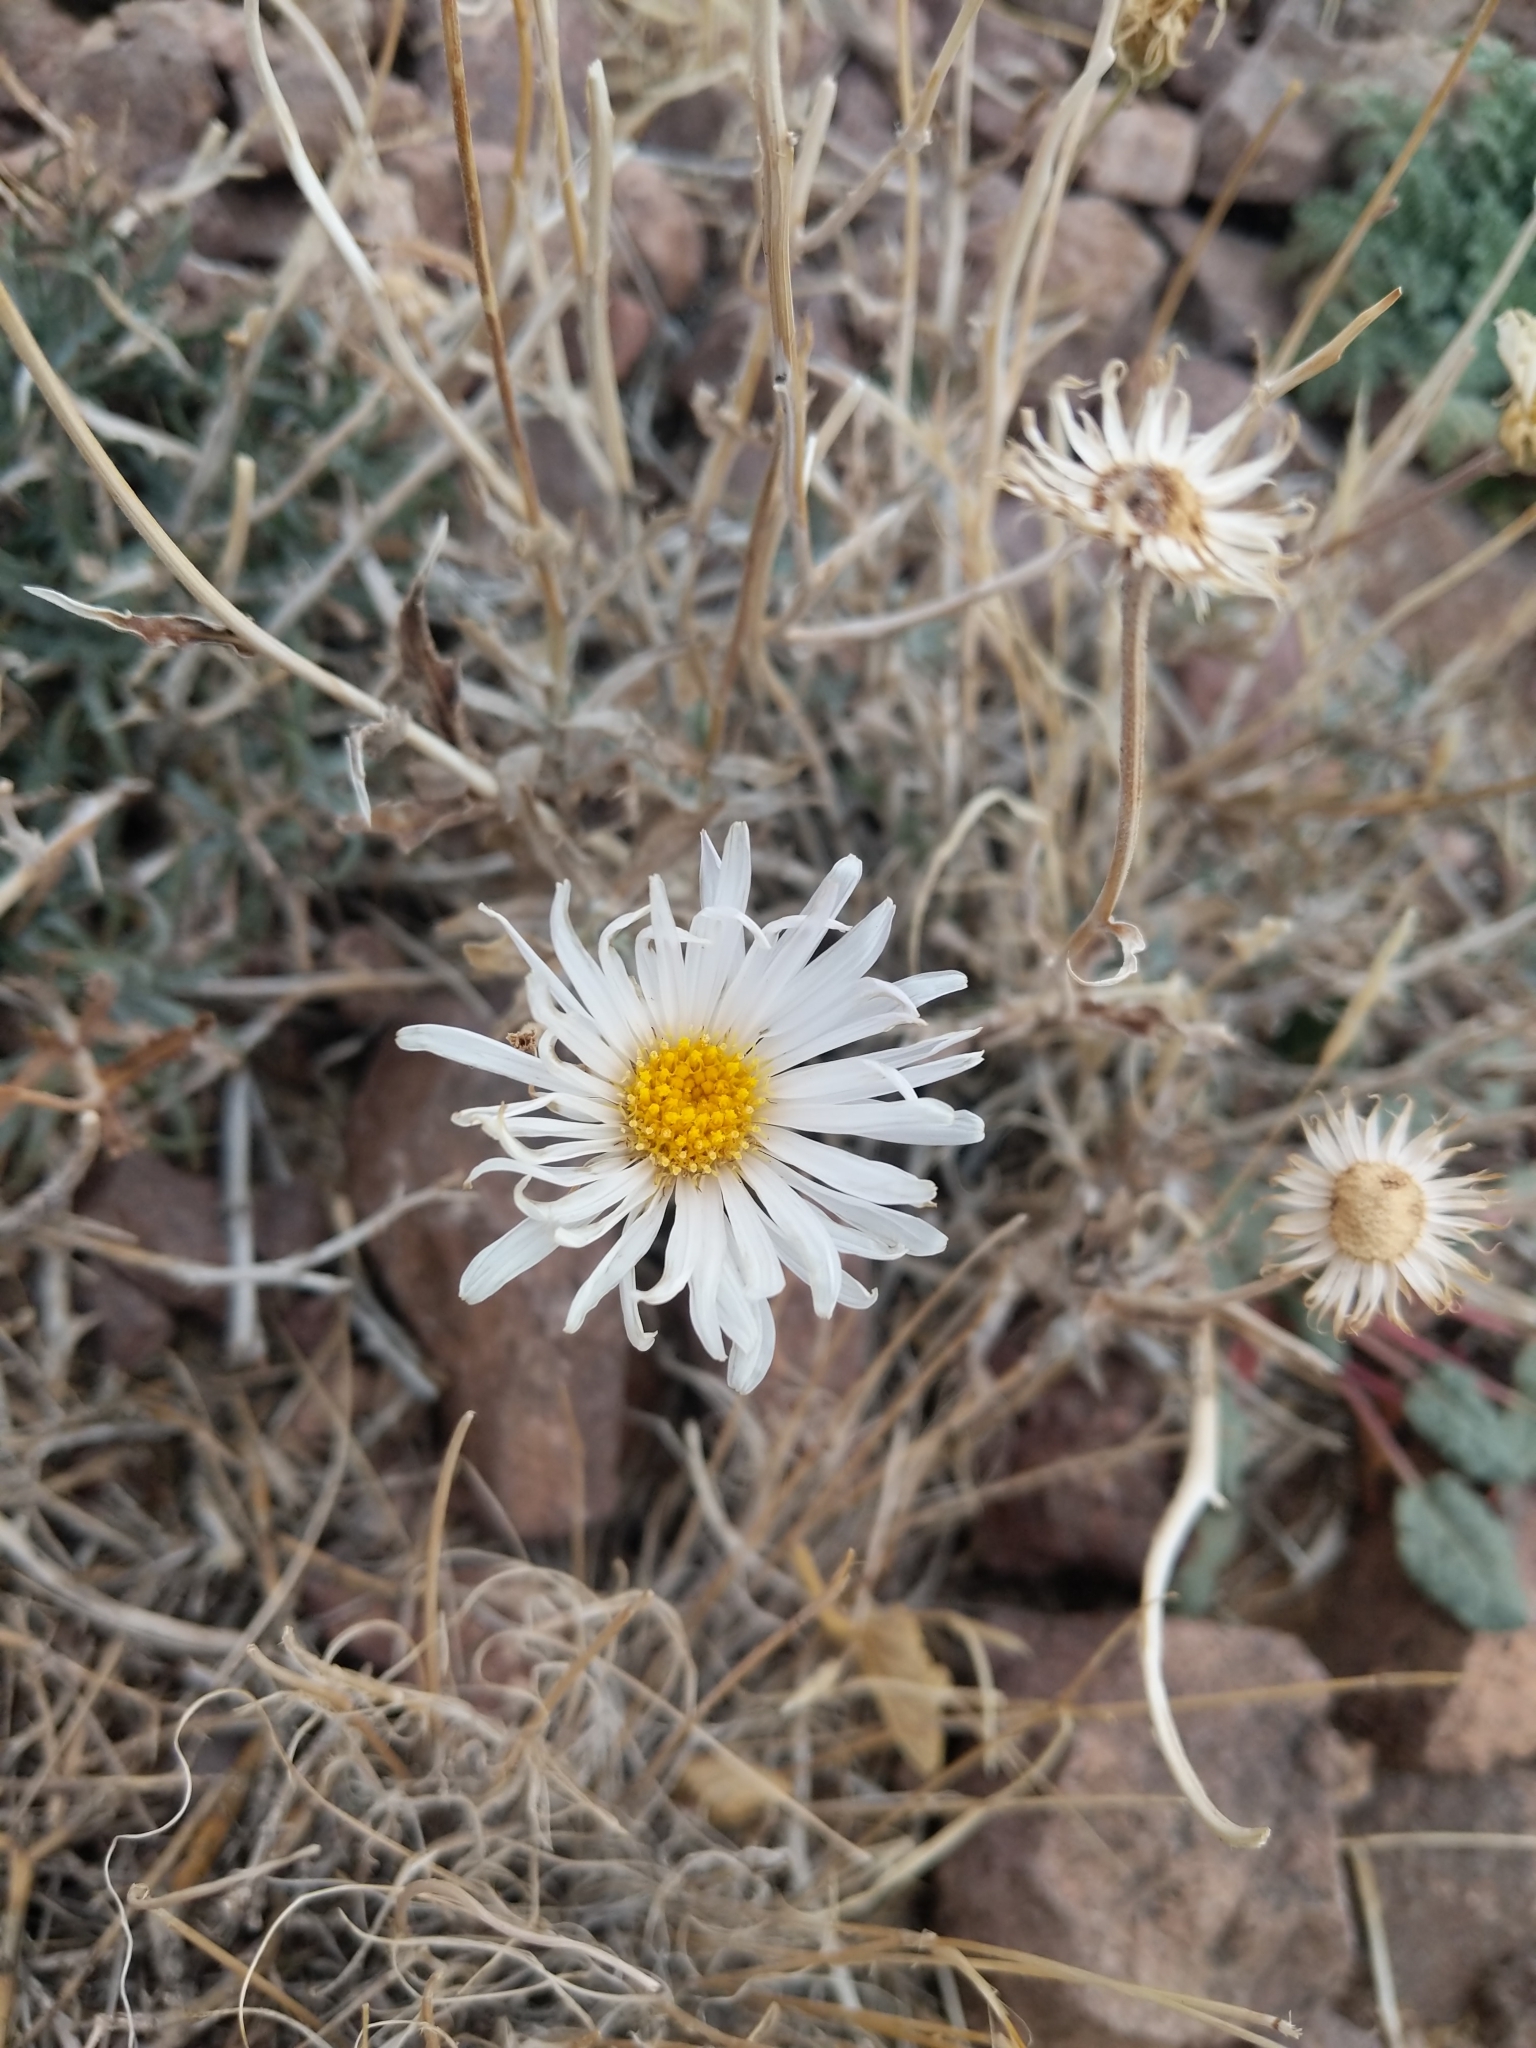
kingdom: Plantae
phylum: Tracheophyta
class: Magnoliopsida
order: Asterales
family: Asteraceae
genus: Xylorhiza
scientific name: Xylorhiza tortifolia
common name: Hurt-leaf woody-aster
